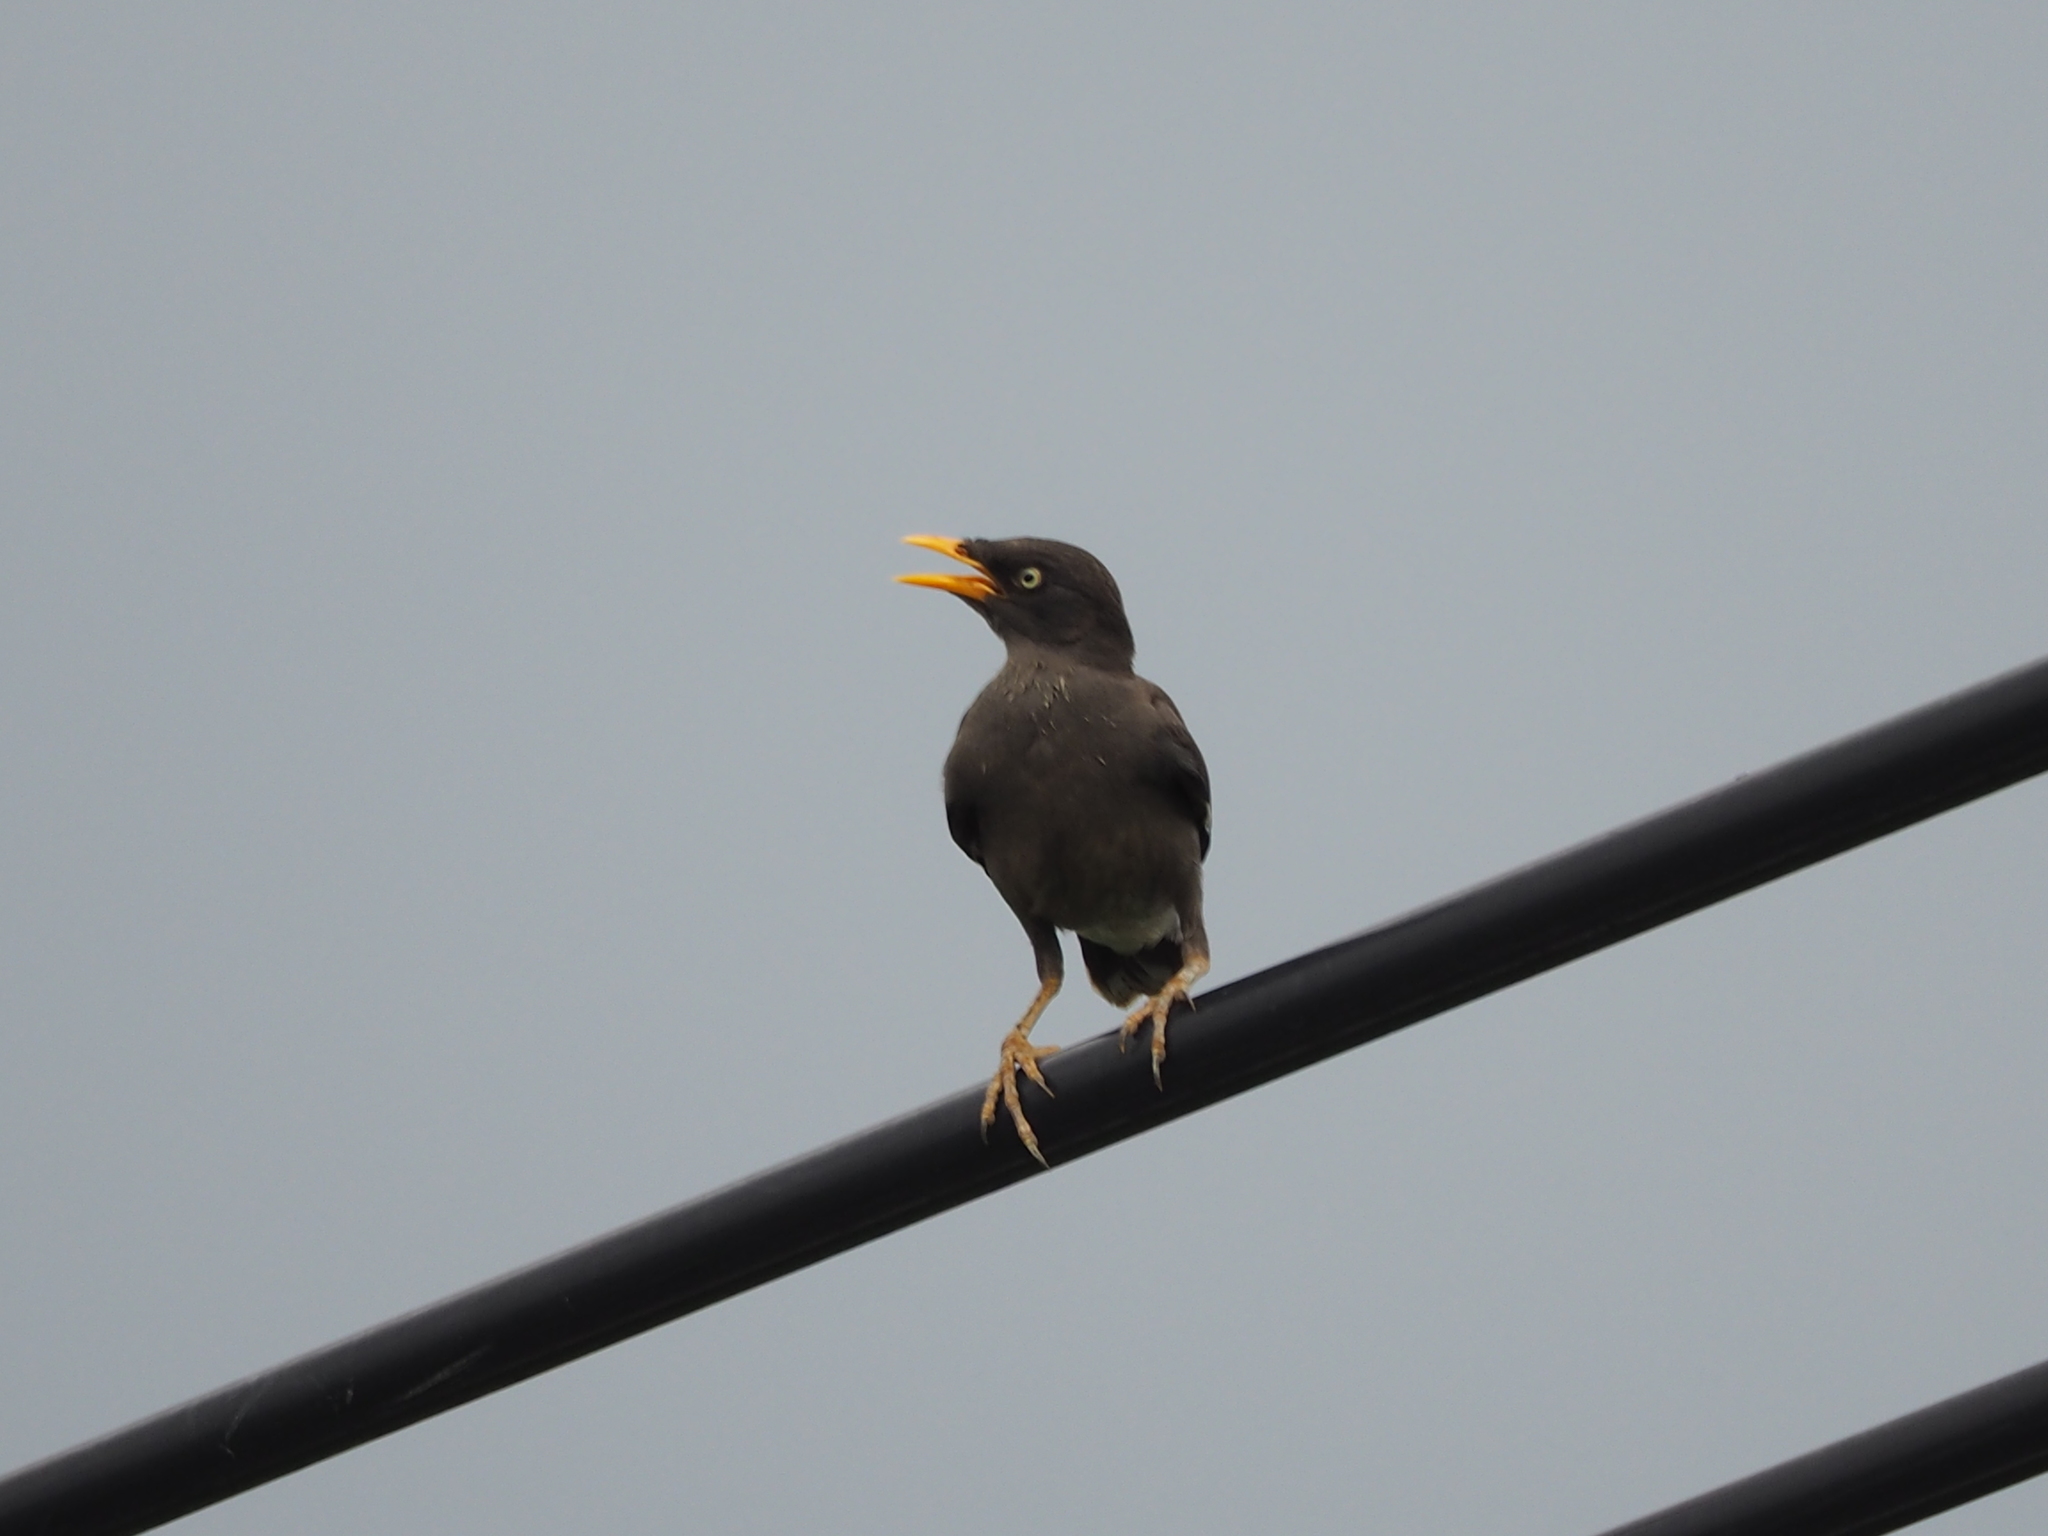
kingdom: Animalia
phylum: Chordata
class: Aves
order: Passeriformes
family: Sturnidae
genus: Acridotheres
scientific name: Acridotheres javanicus
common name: Javan myna
